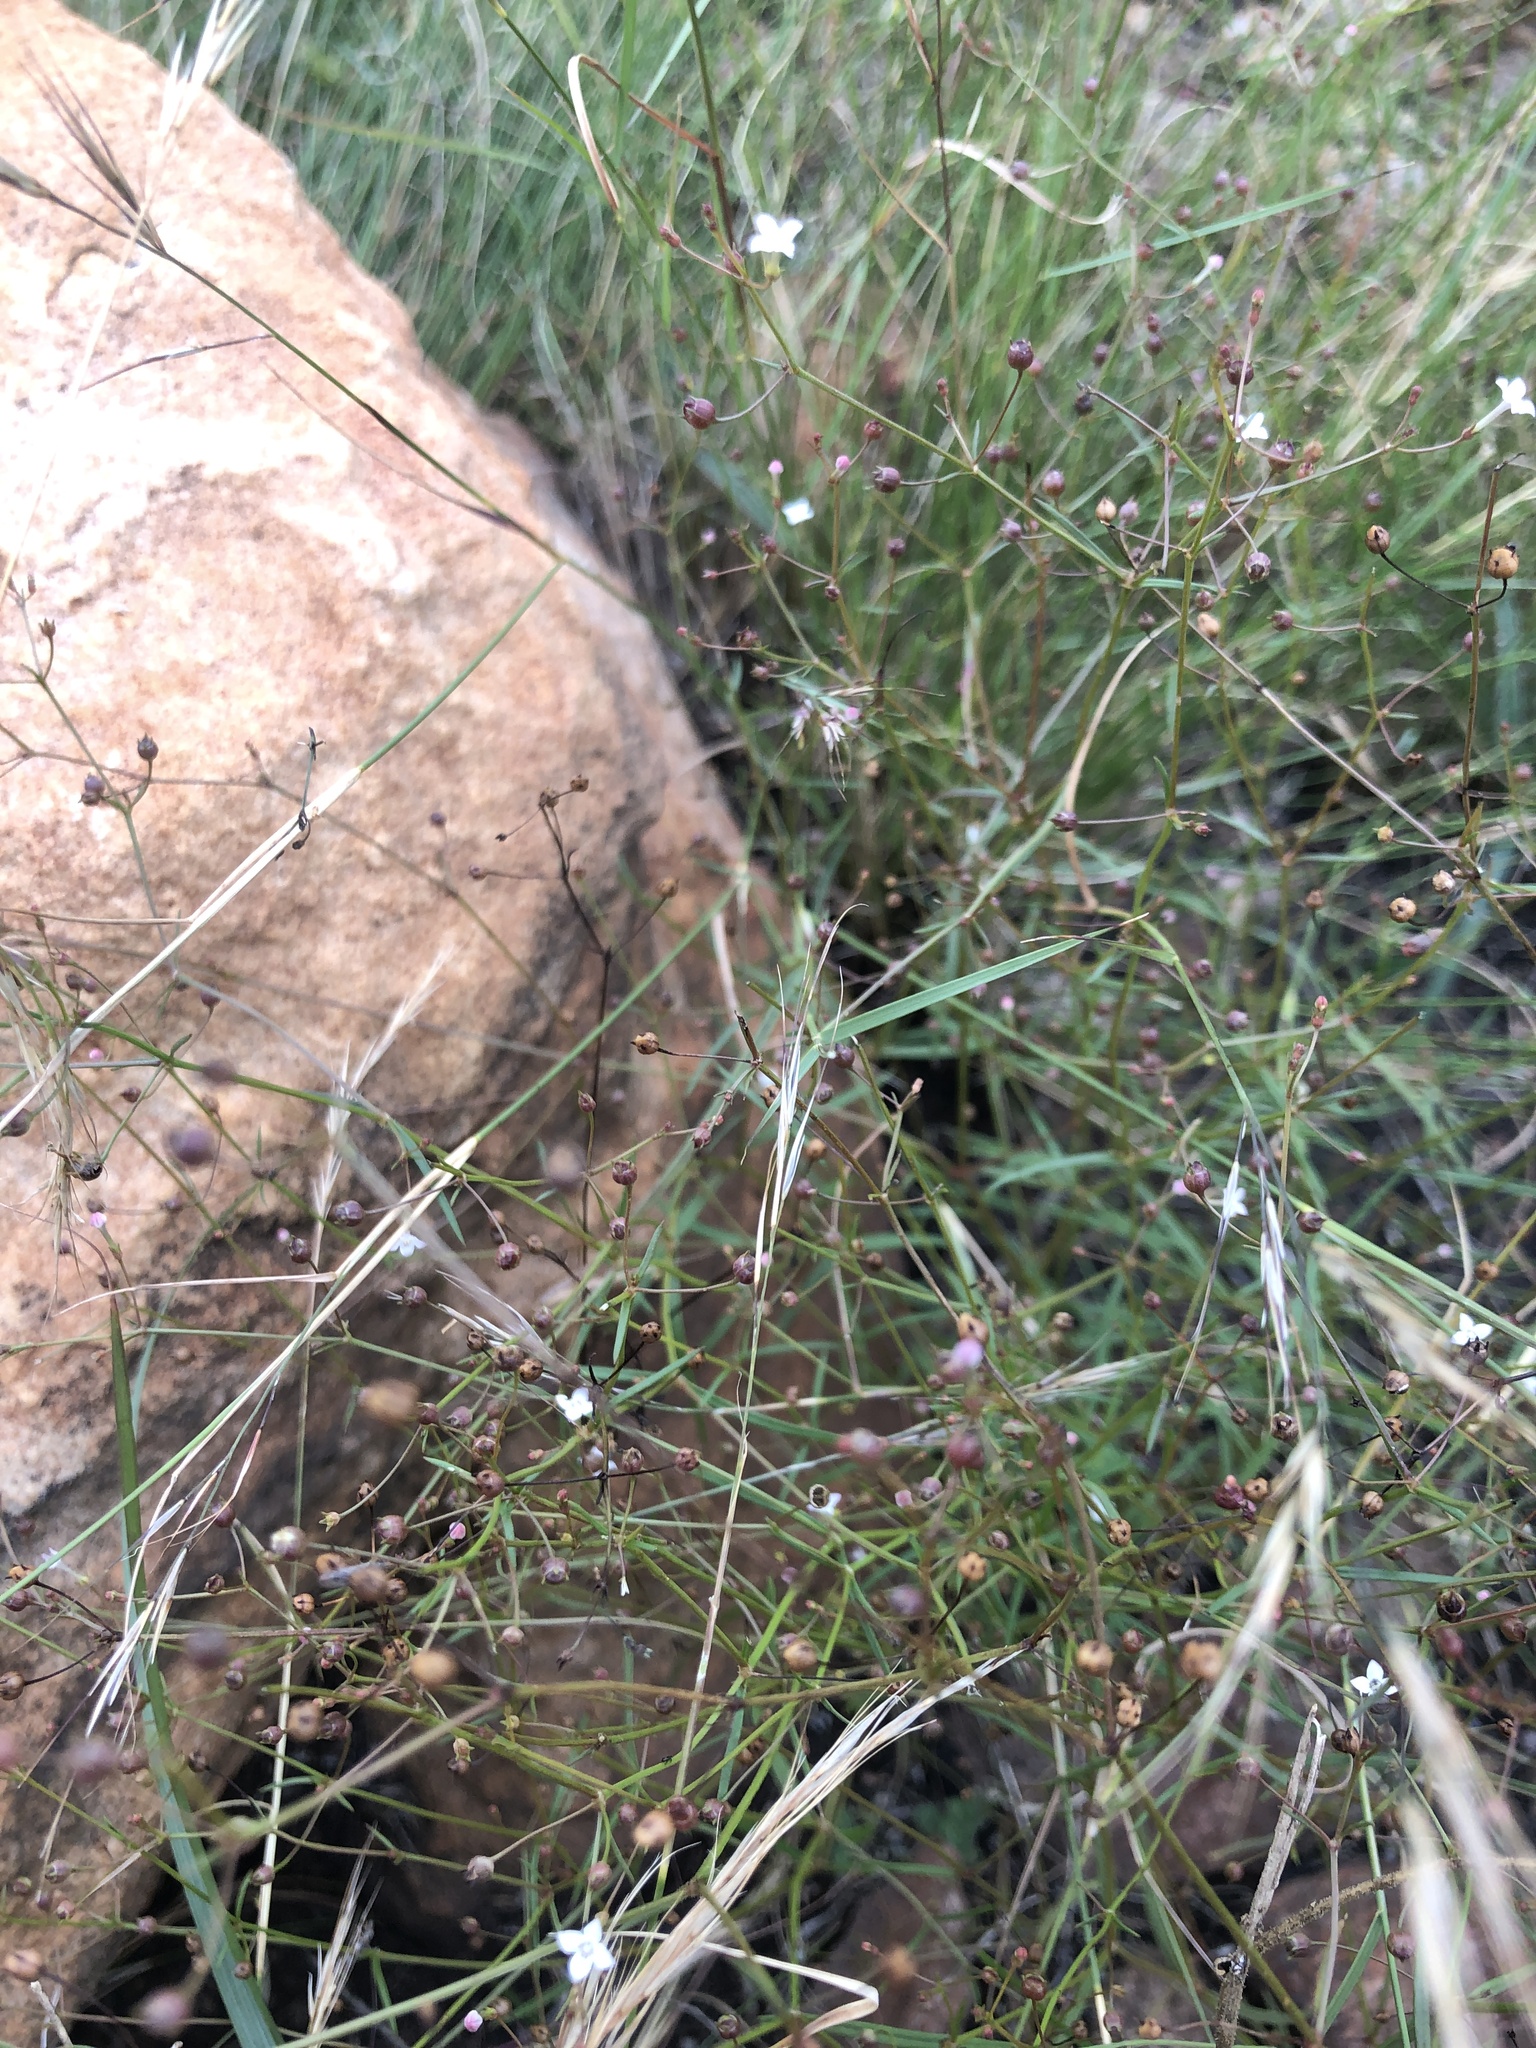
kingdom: Plantae
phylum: Tracheophyta
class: Magnoliopsida
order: Gentianales
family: Rubiaceae
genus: Oldenlandia
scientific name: Oldenlandia herbacea
